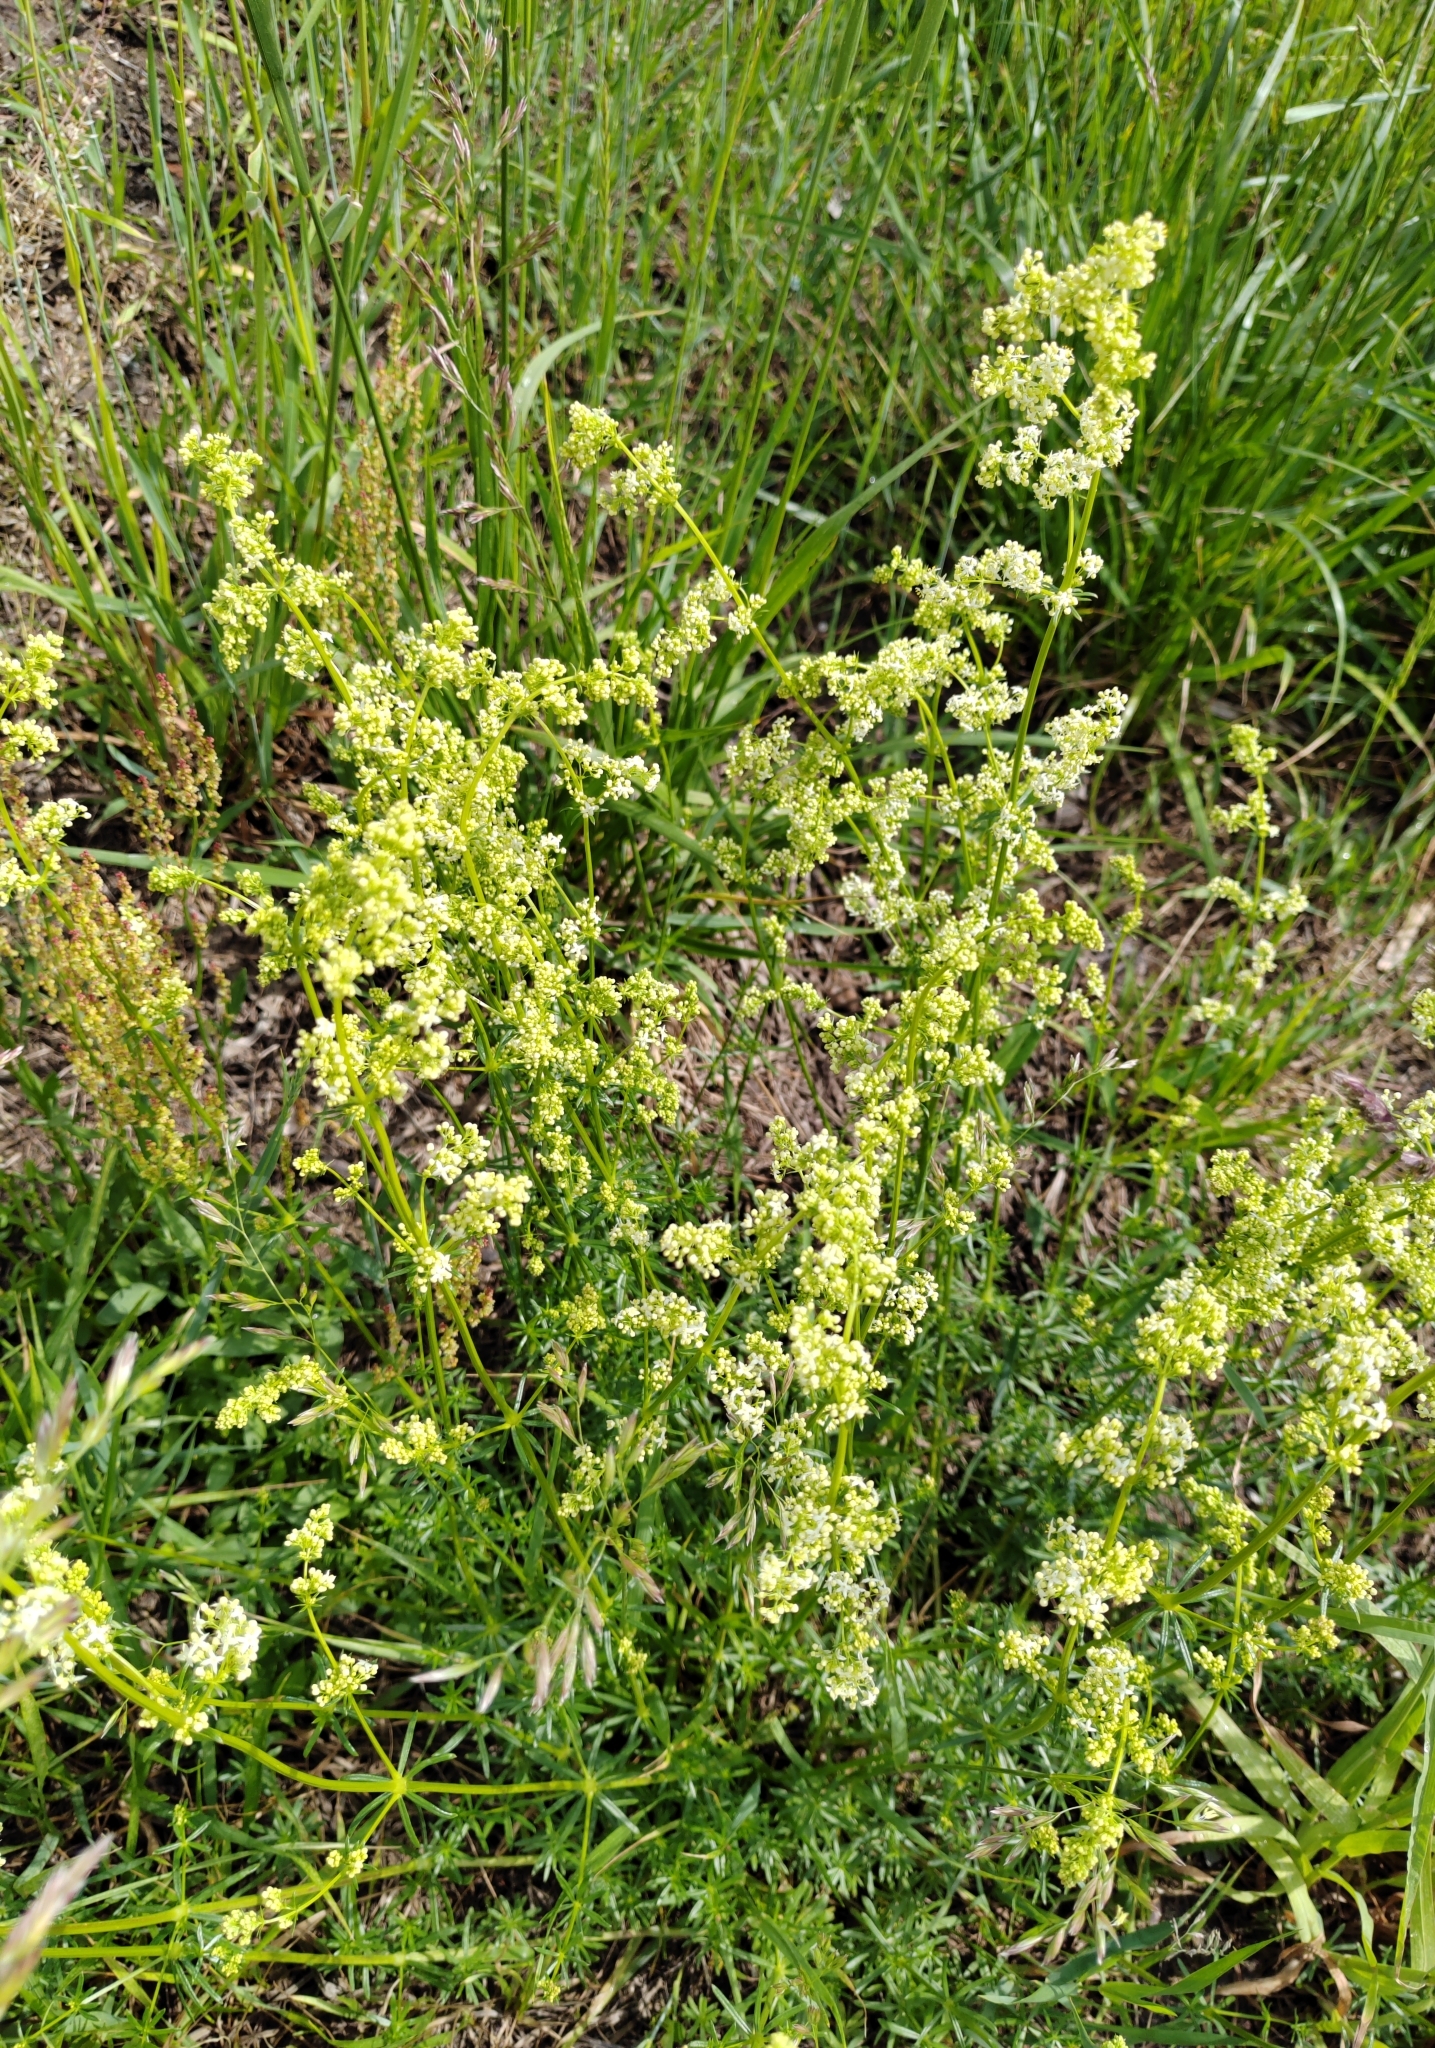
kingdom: Plantae
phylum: Tracheophyta
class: Magnoliopsida
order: Gentianales
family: Rubiaceae
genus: Galium
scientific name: Galium mollugo
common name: Hedge bedstraw
